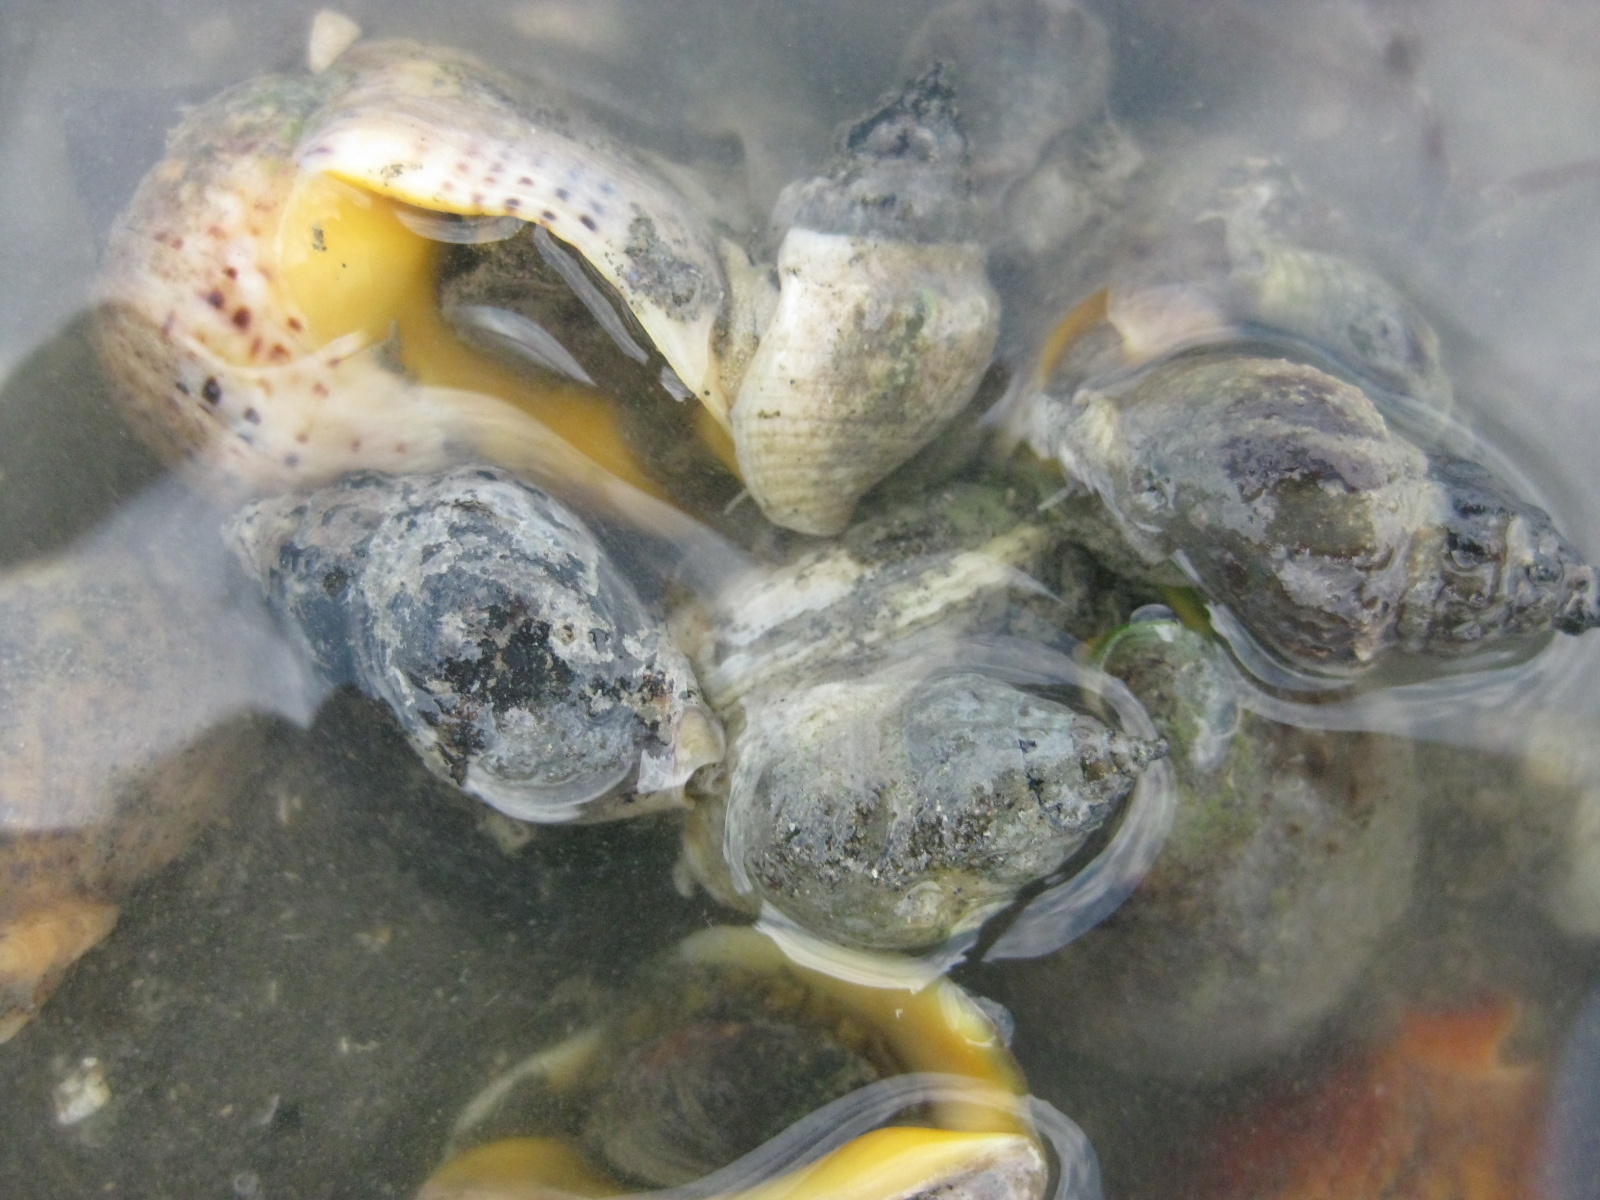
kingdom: Animalia
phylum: Mollusca
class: Bivalvia
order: Venerida
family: Veneridae
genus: Austrovenus
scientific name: Austrovenus stutchburyi
